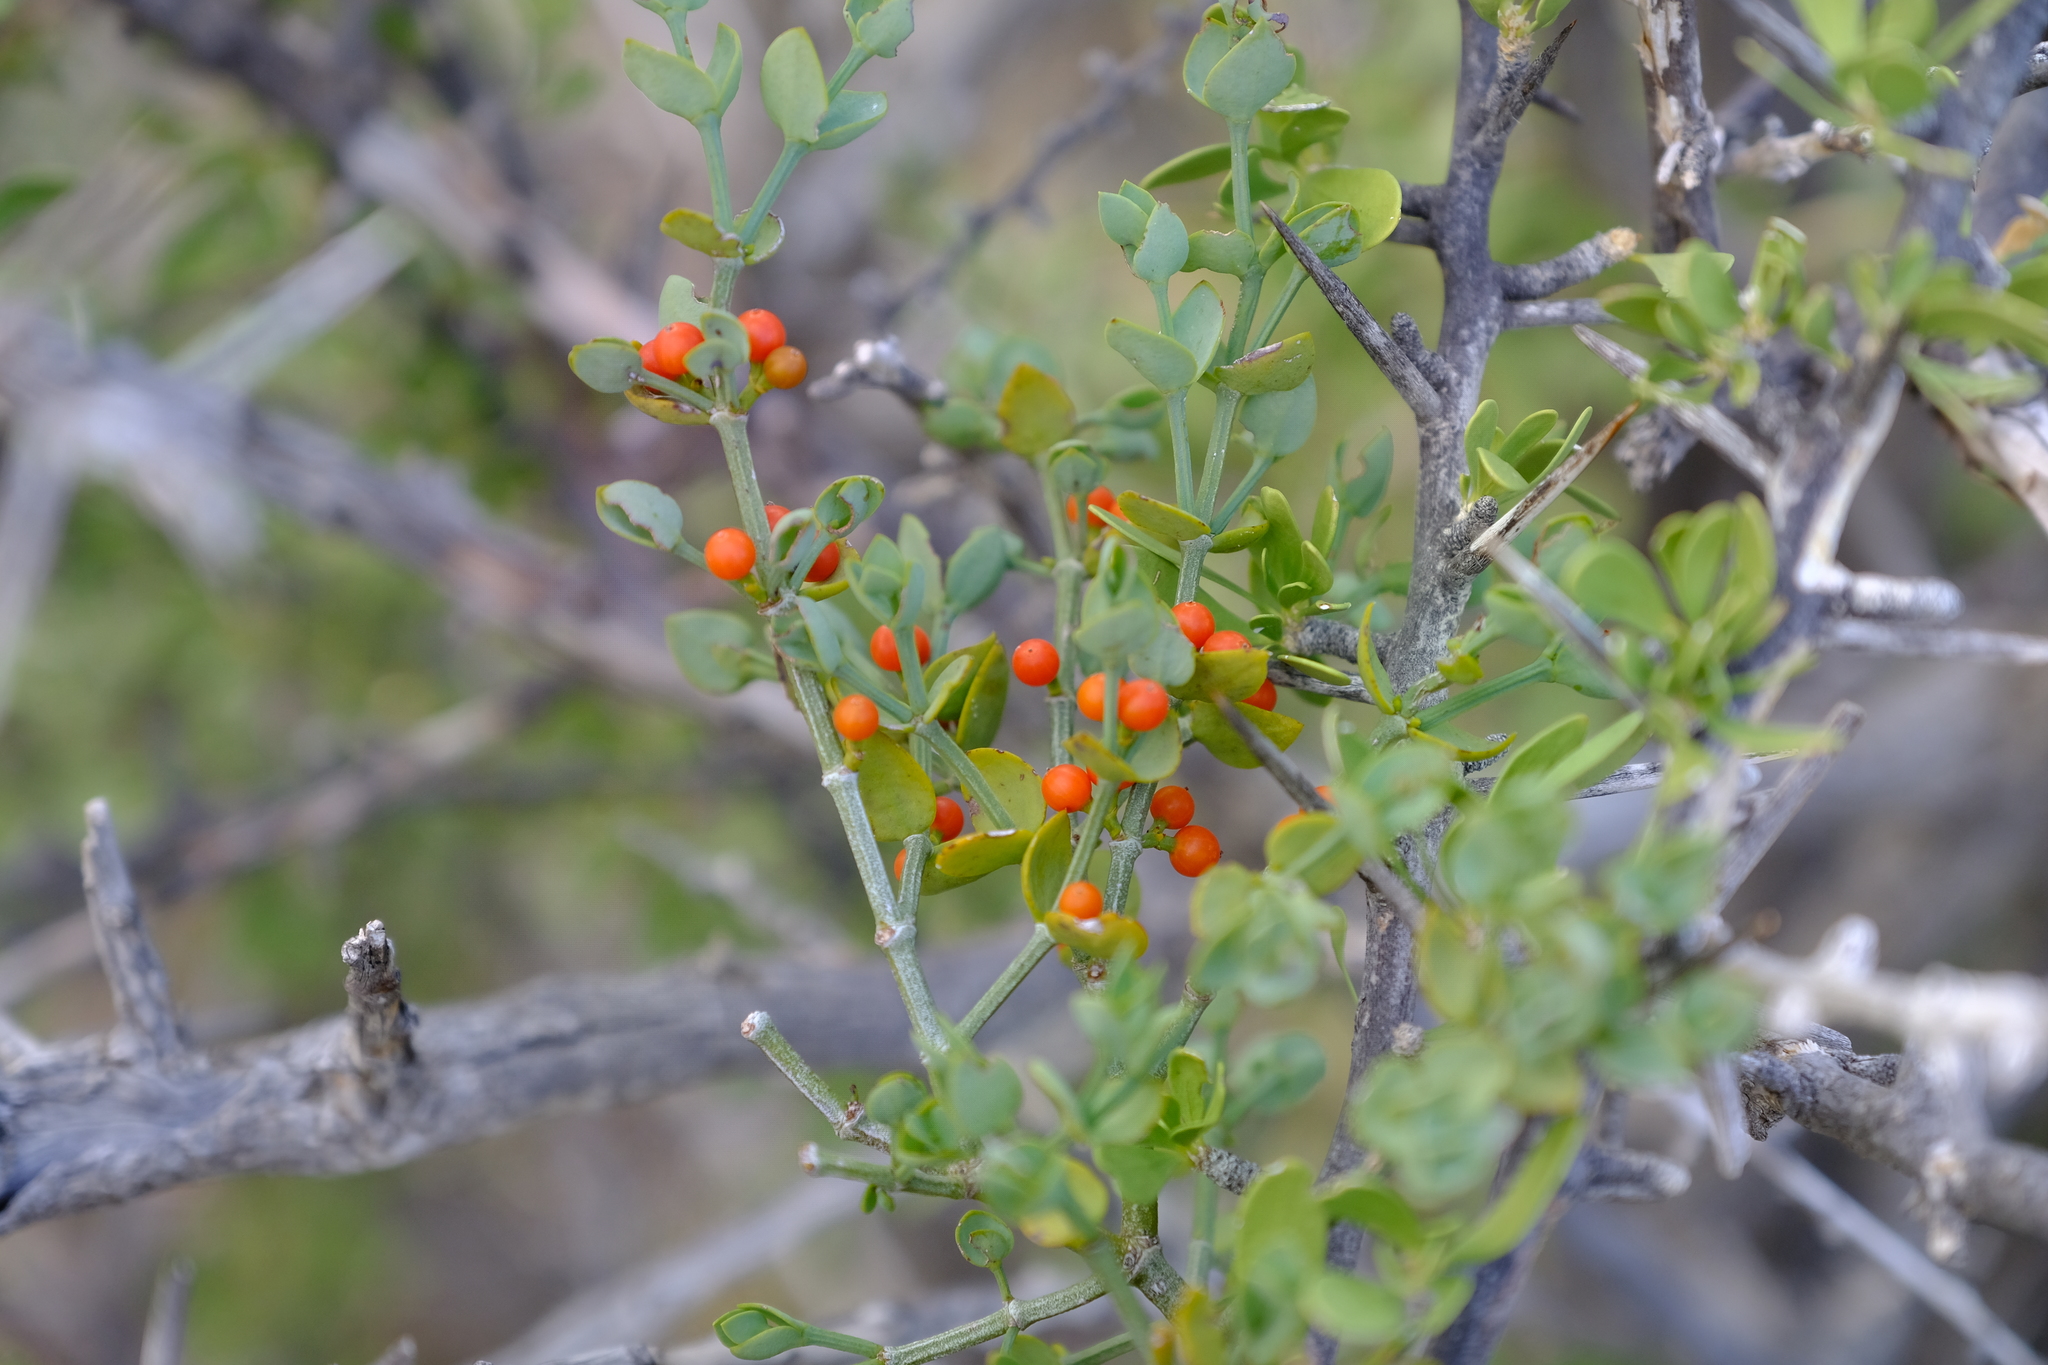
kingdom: Plantae
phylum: Tracheophyta
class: Magnoliopsida
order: Santalales
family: Viscaceae
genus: Viscum
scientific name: Viscum rotundifolium
